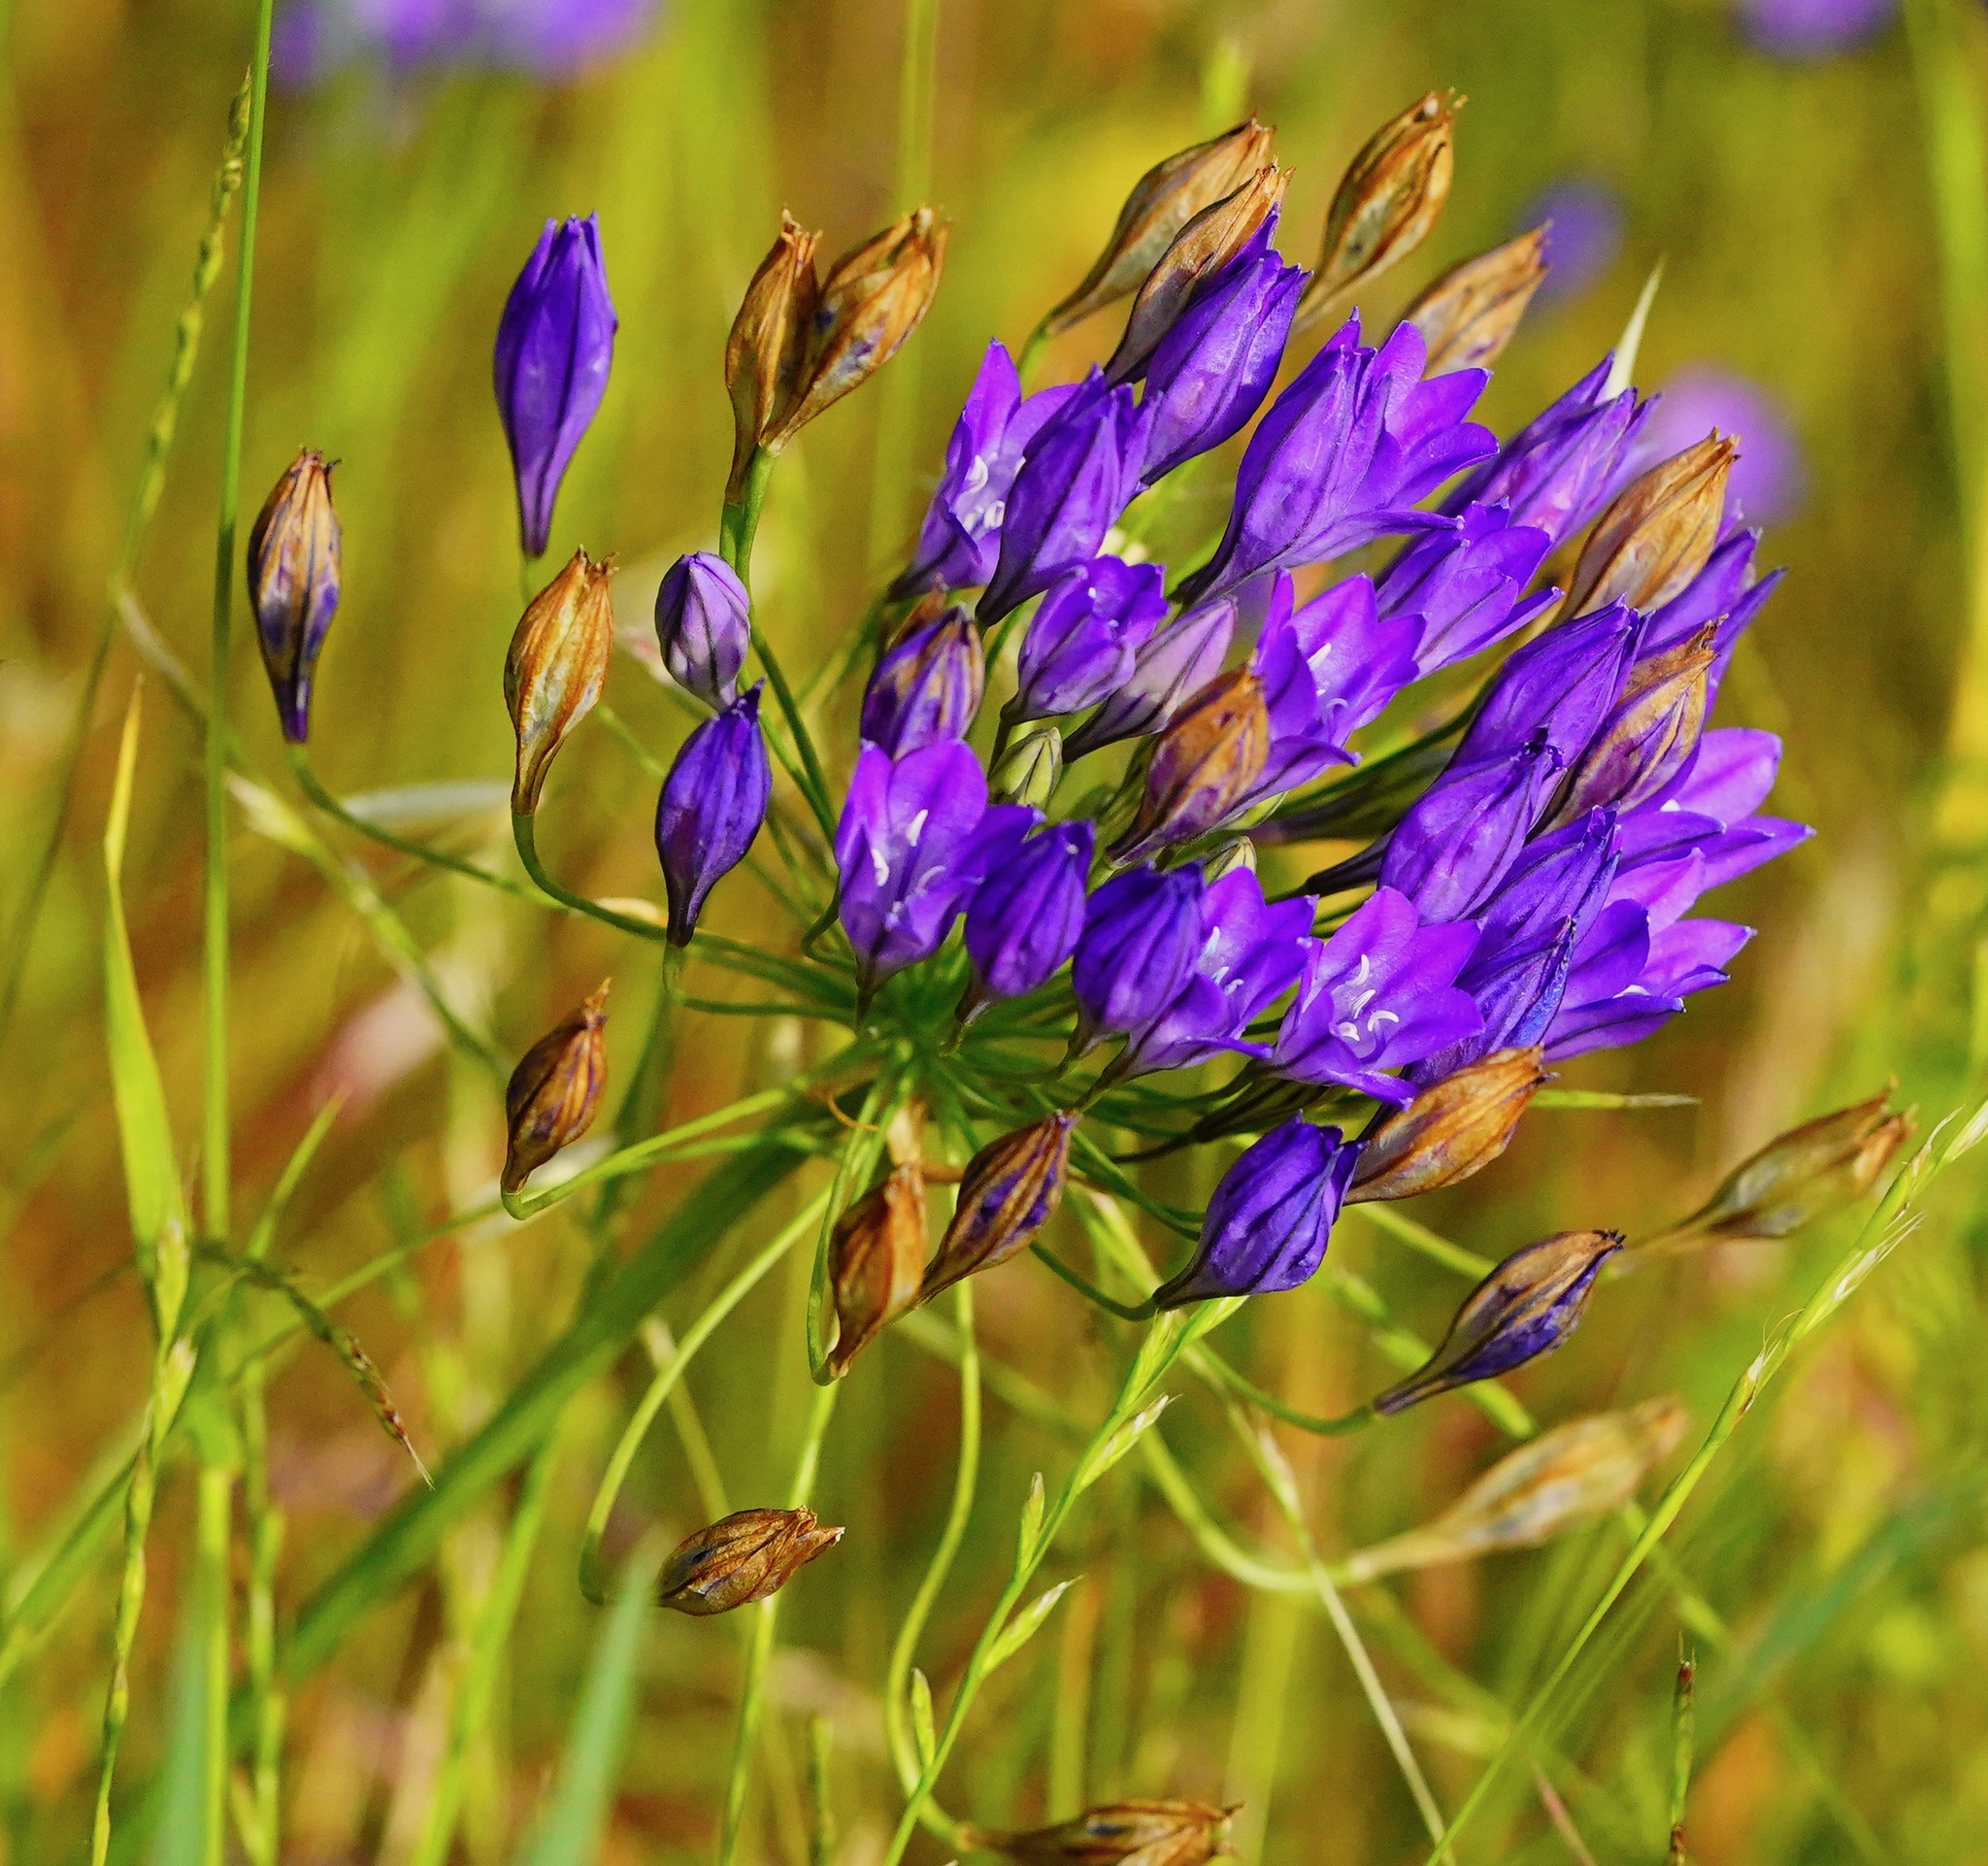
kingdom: Plantae
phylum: Tracheophyta
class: Liliopsida
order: Asparagales
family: Asparagaceae
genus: Triteleia
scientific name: Triteleia laxa
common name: Triplet-lily
